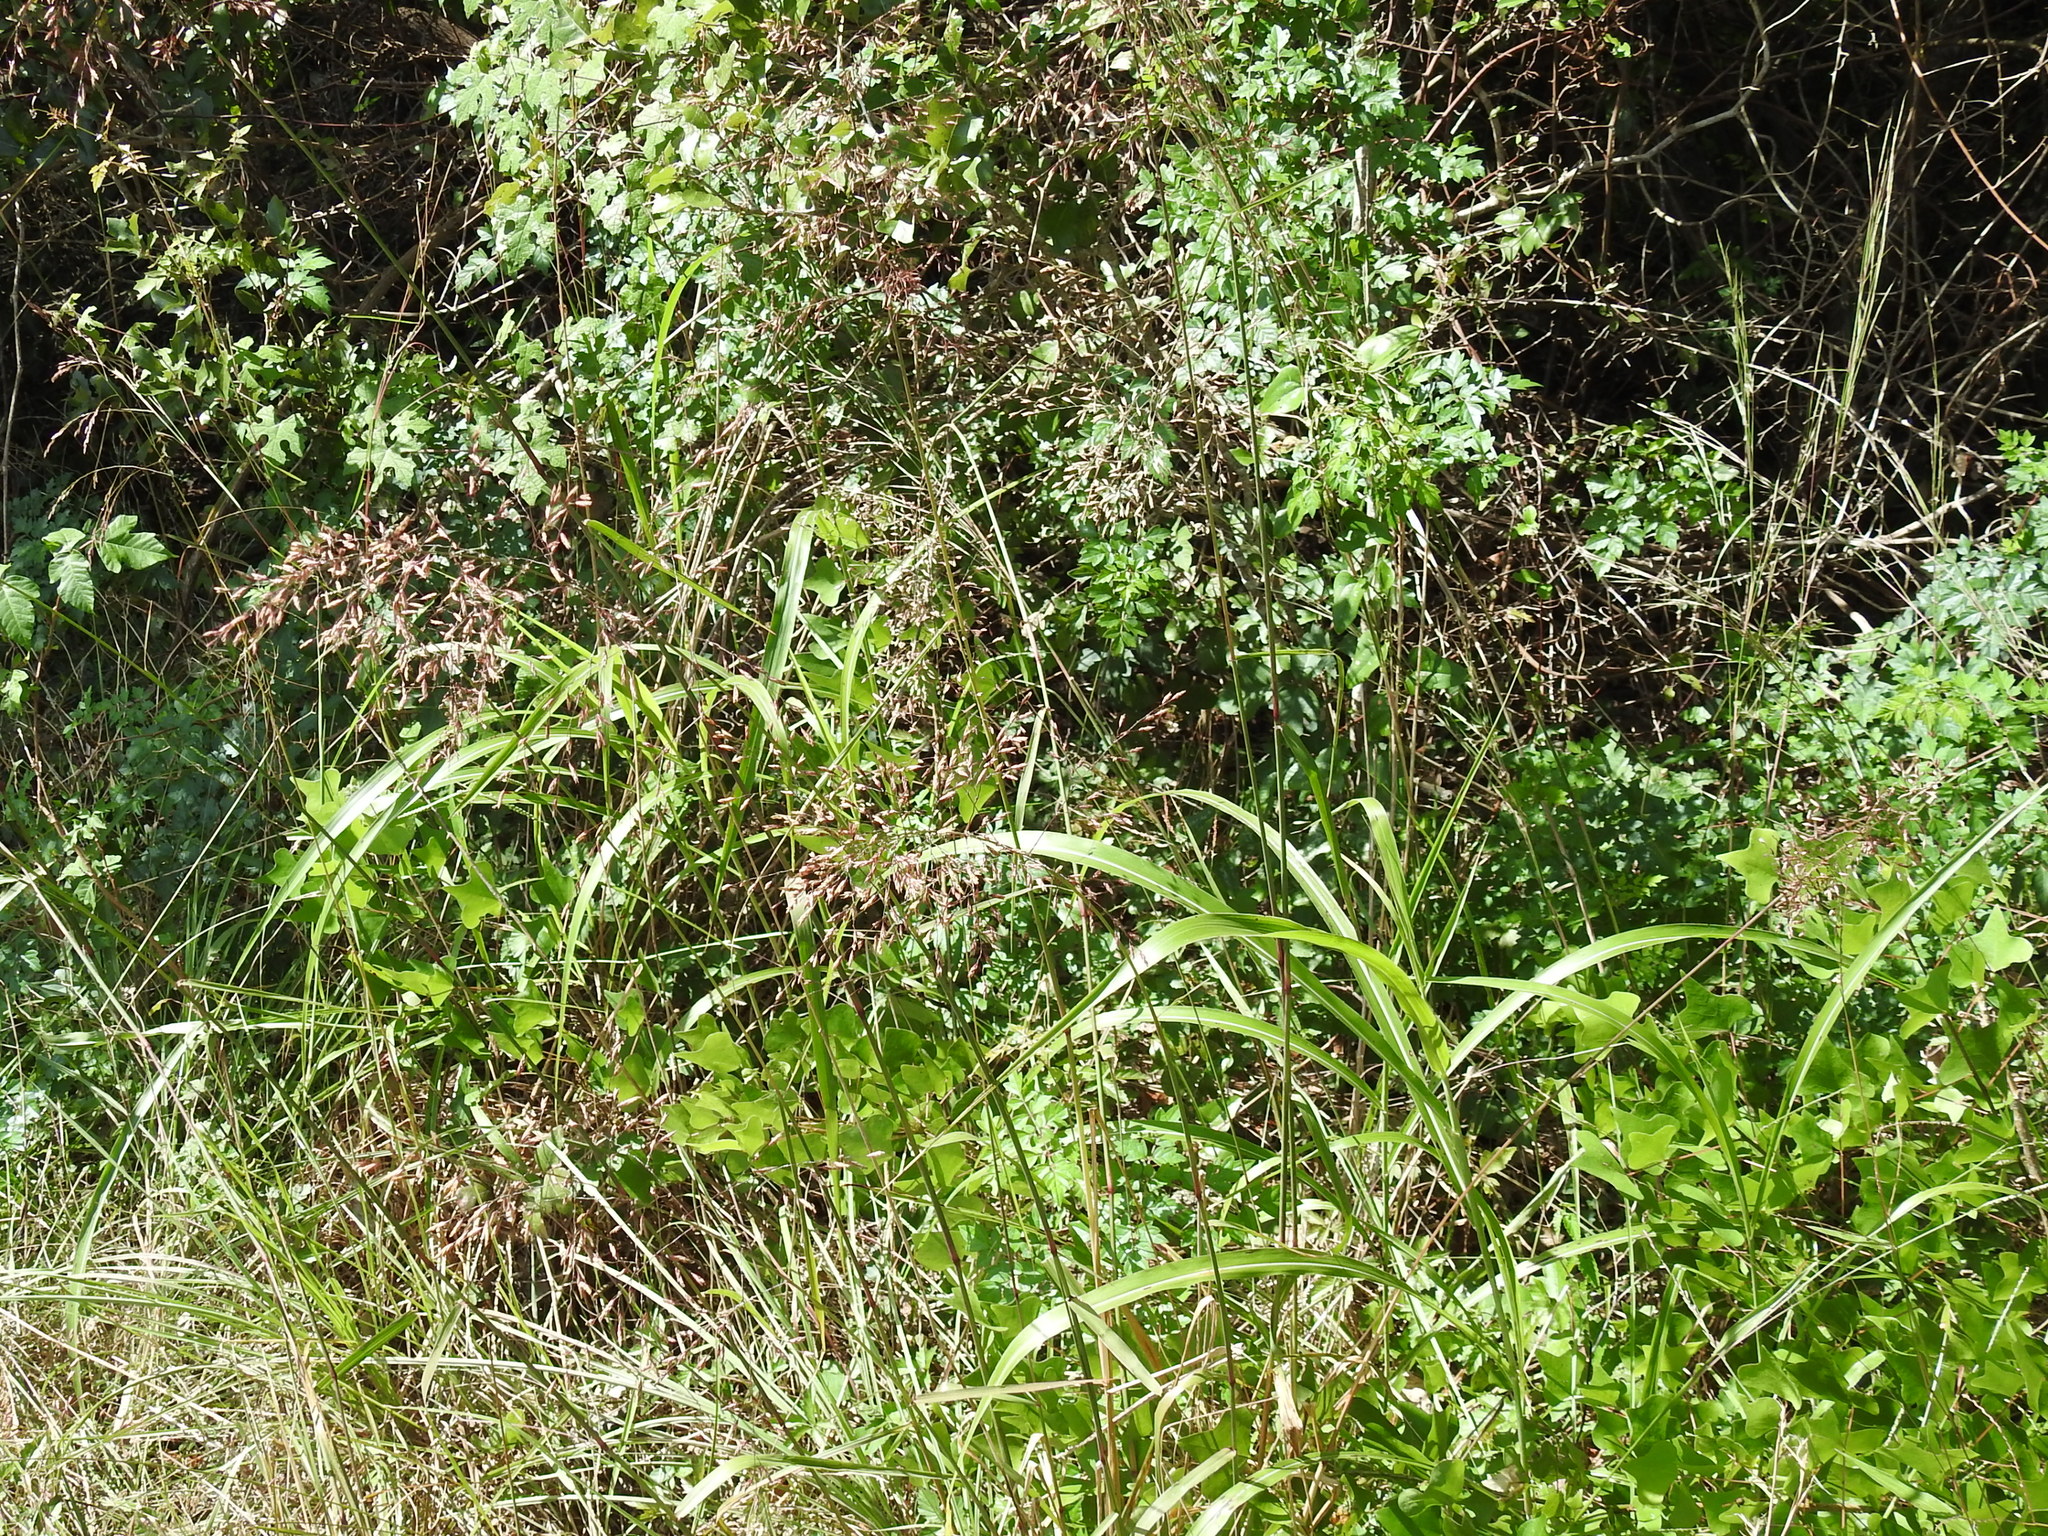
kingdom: Plantae
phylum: Tracheophyta
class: Liliopsida
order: Poales
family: Poaceae
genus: Tridens
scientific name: Tridens chapmanii
